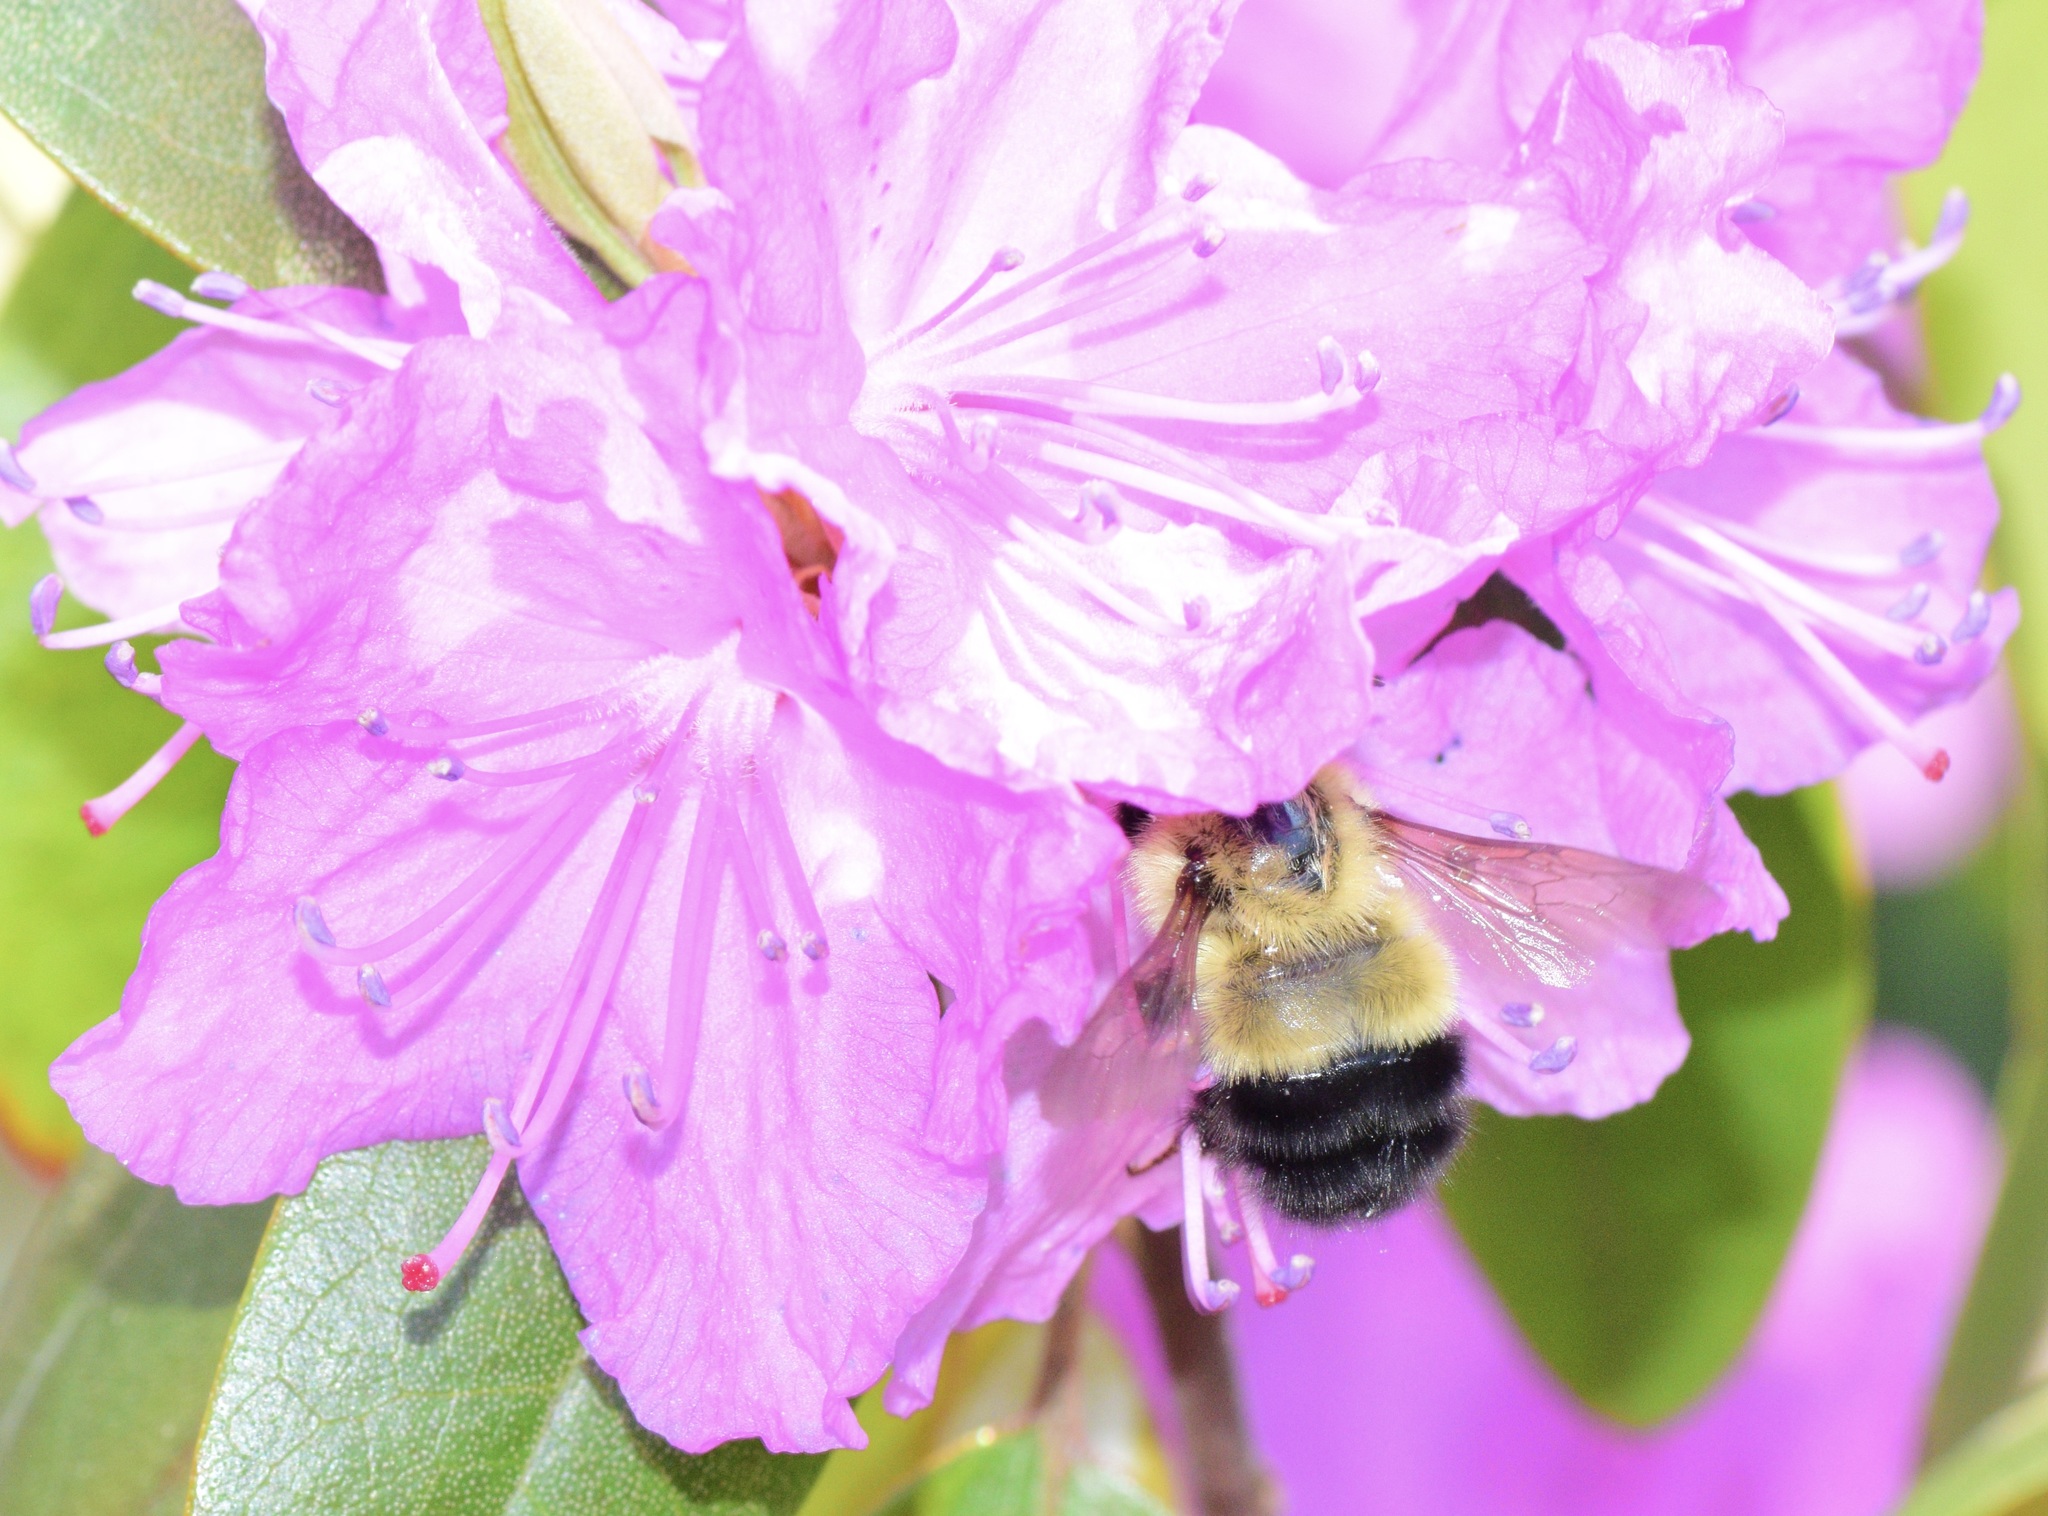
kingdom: Animalia
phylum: Arthropoda
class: Insecta
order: Hymenoptera
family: Apidae
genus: Pyrobombus
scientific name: Pyrobombus
